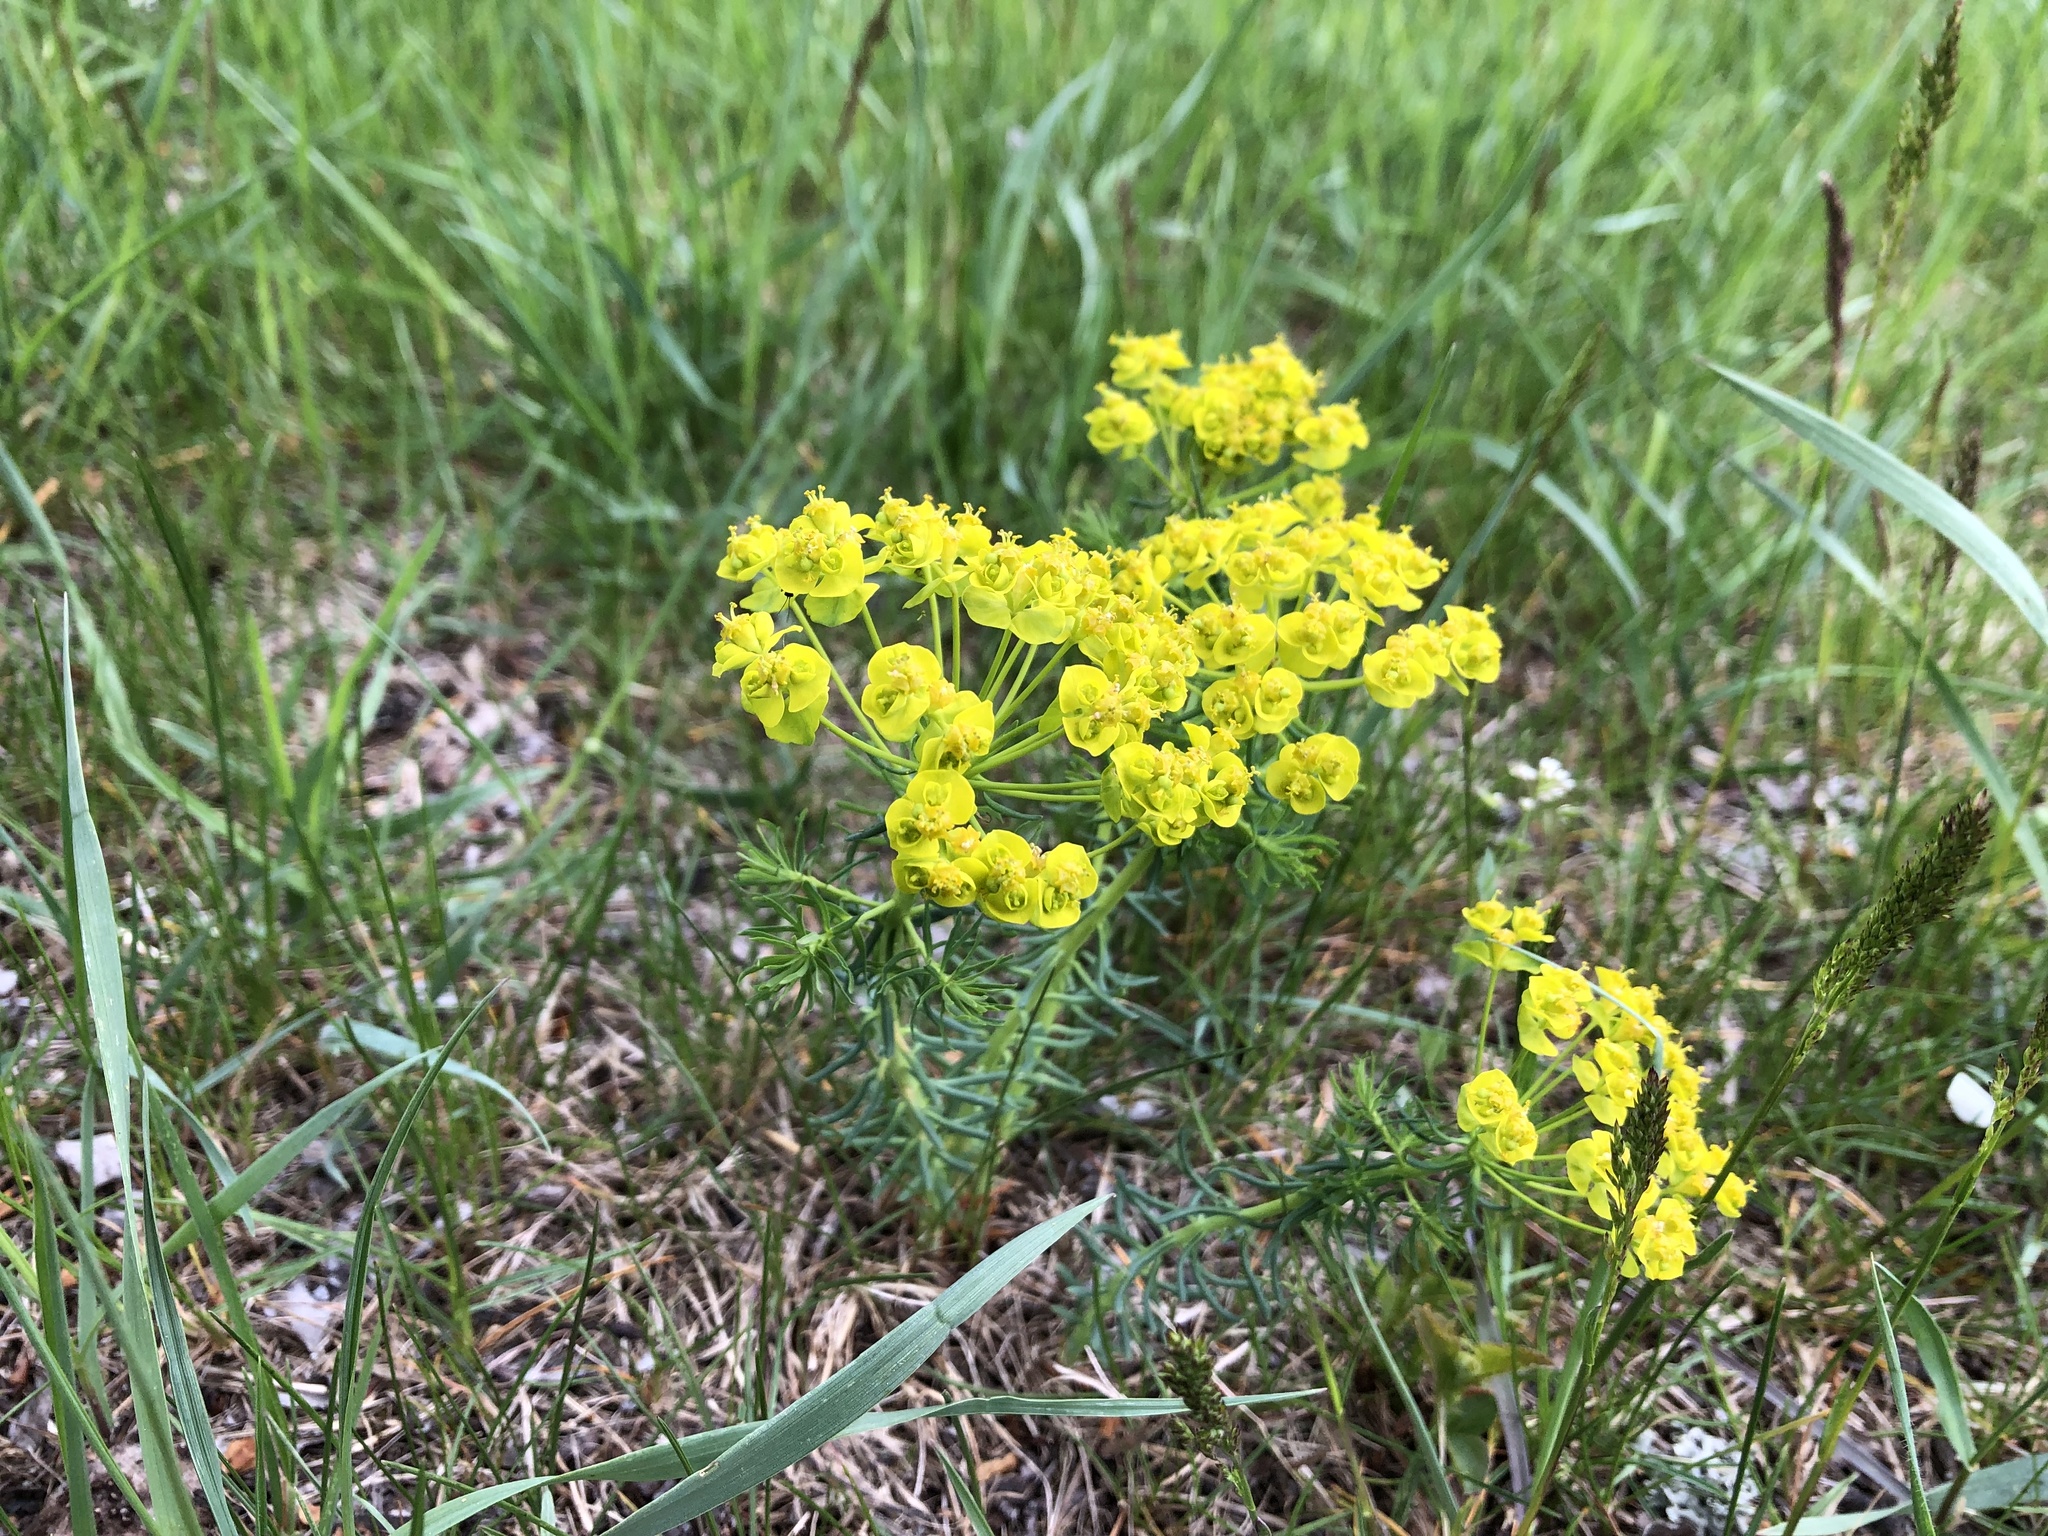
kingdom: Plantae
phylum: Tracheophyta
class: Magnoliopsida
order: Malpighiales
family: Euphorbiaceae
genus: Euphorbia
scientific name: Euphorbia cyparissias
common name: Cypress spurge
